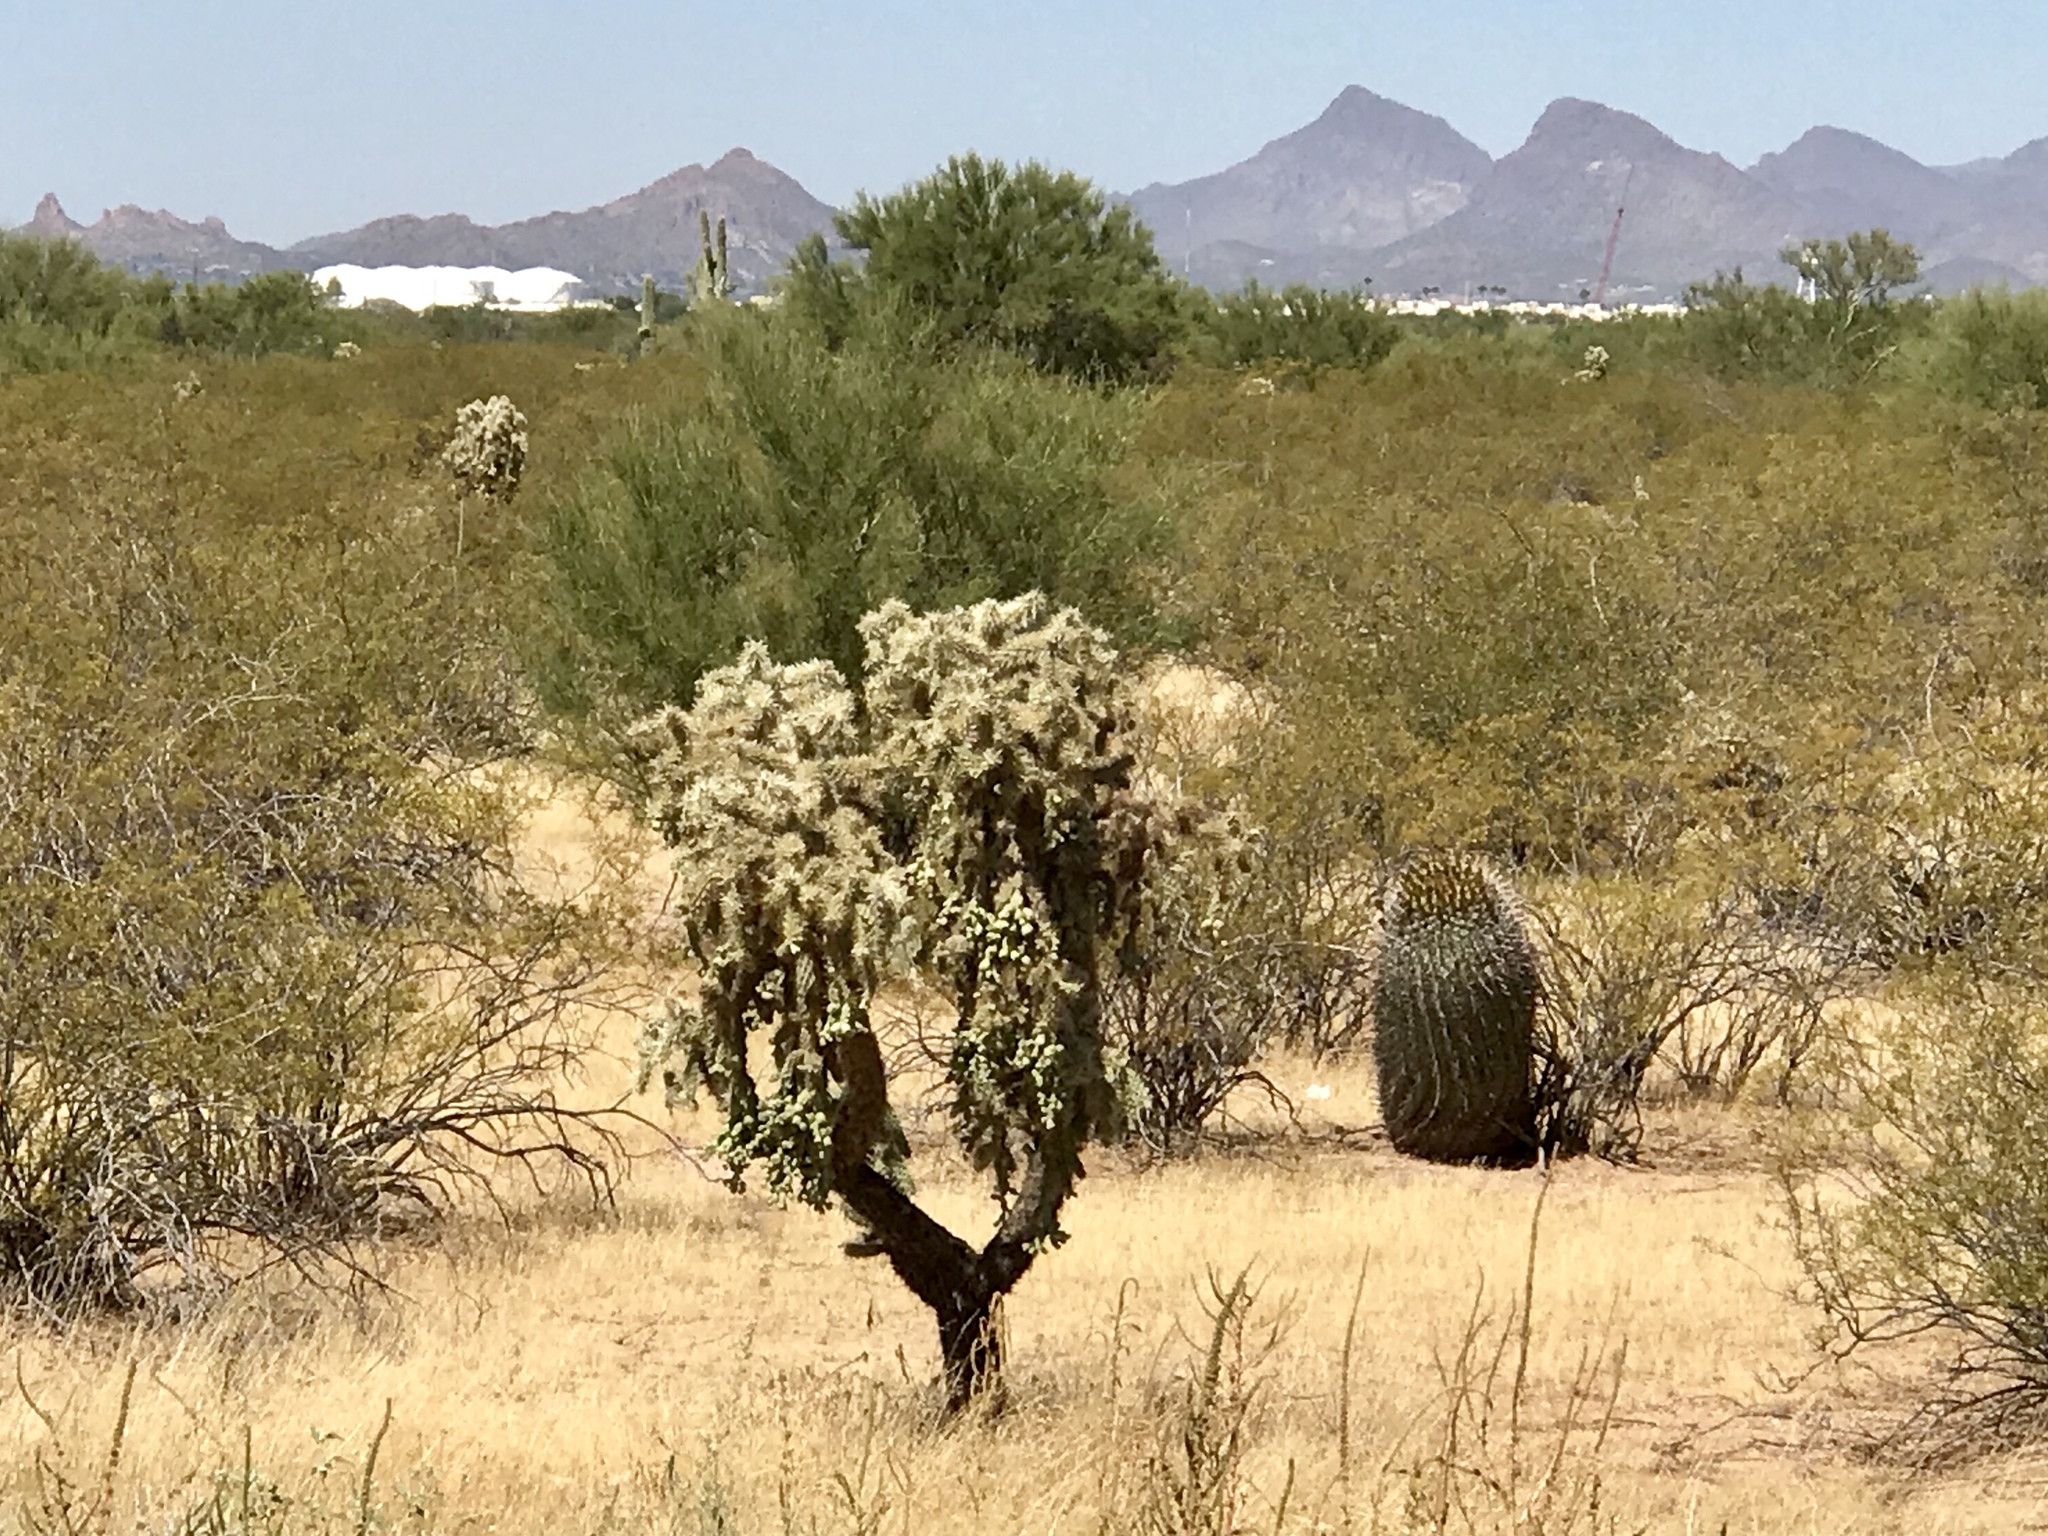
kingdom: Plantae
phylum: Tracheophyta
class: Magnoliopsida
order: Caryophyllales
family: Cactaceae
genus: Cylindropuntia
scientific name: Cylindropuntia fulgida
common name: Jumping cholla
